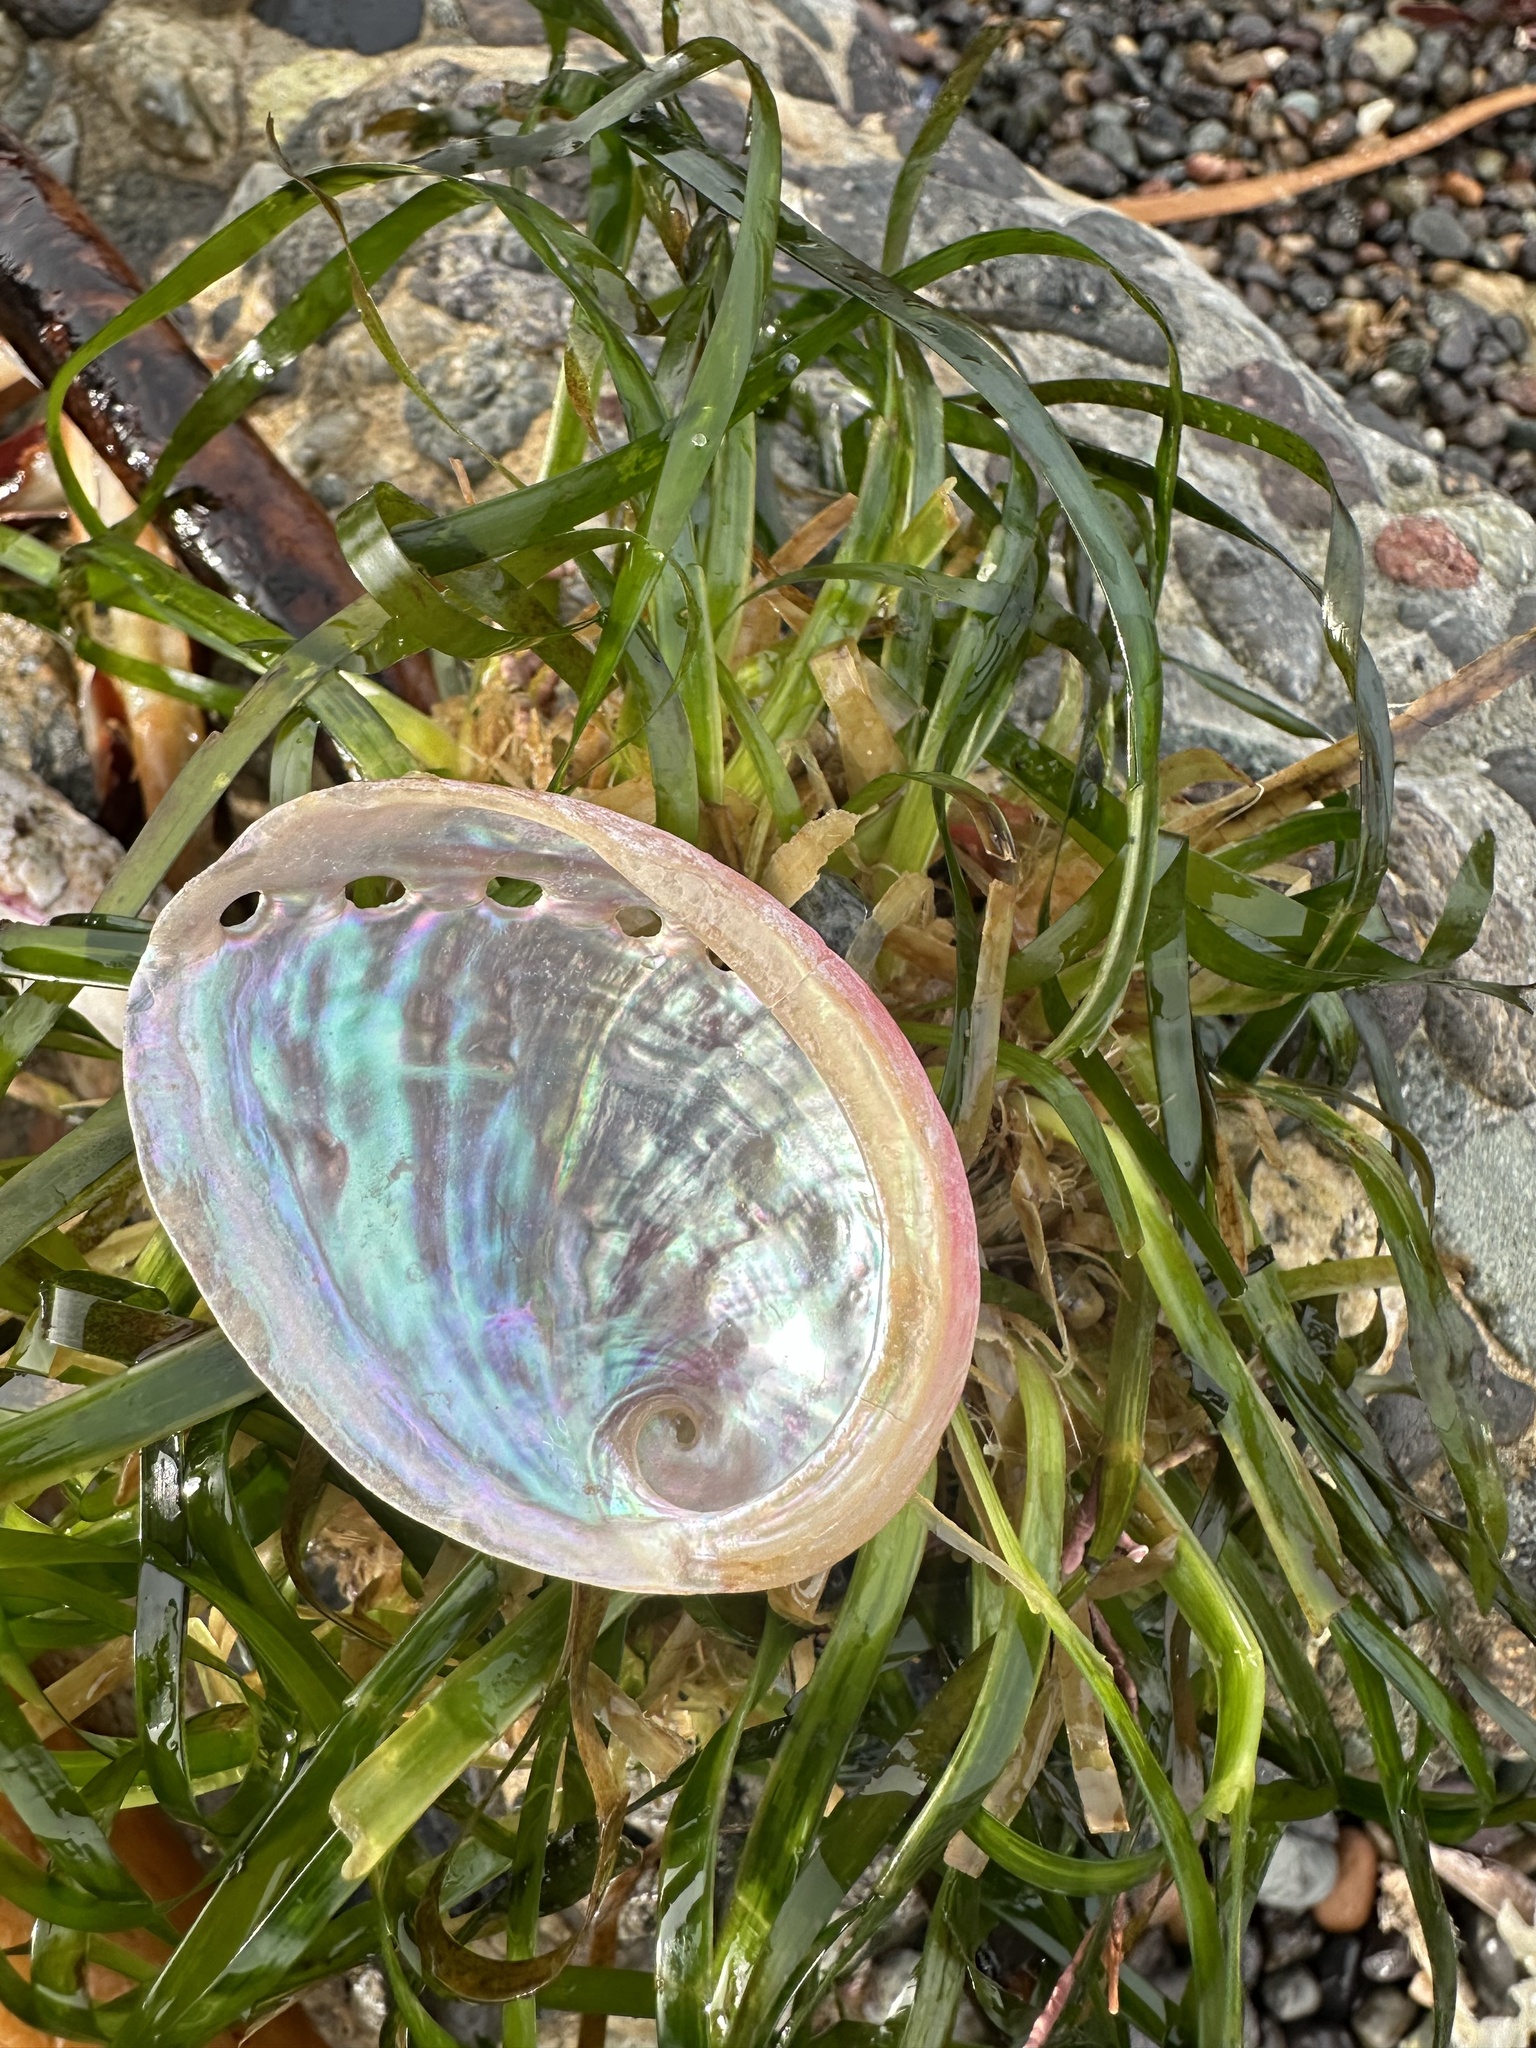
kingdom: Animalia
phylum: Mollusca
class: Gastropoda
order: Lepetellida
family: Haliotidae
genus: Haliotis
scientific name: Haliotis rufescens
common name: Red abalone
